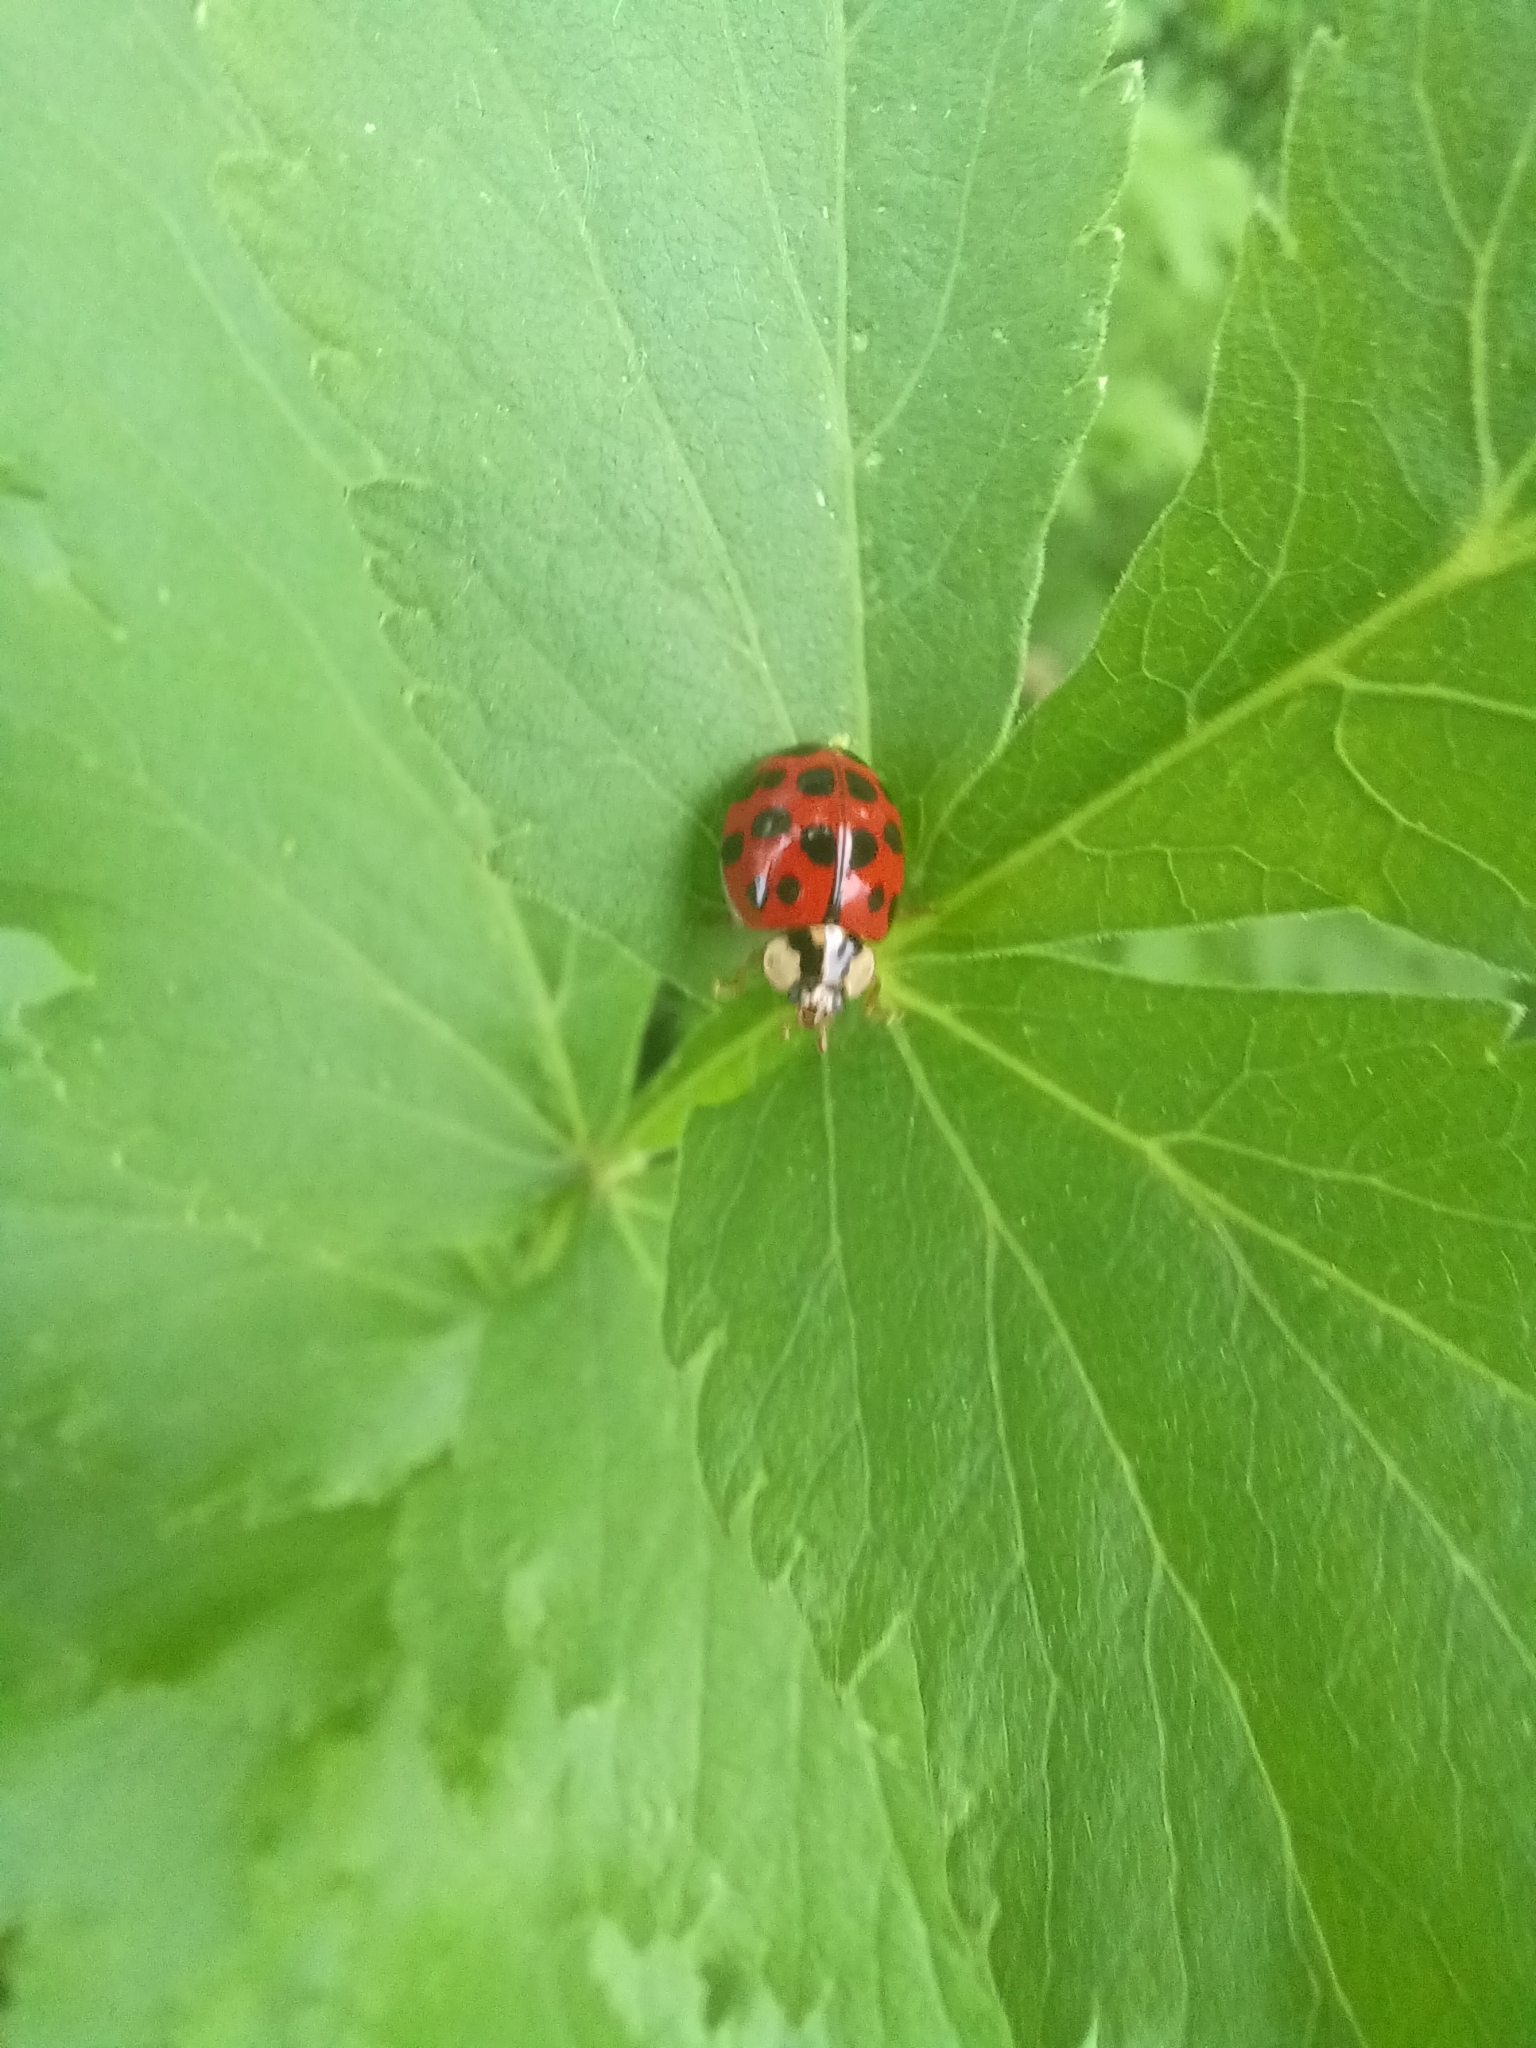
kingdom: Animalia
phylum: Arthropoda
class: Insecta
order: Coleoptera
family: Coccinellidae
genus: Harmonia
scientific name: Harmonia axyridis
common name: Harlequin ladybird
